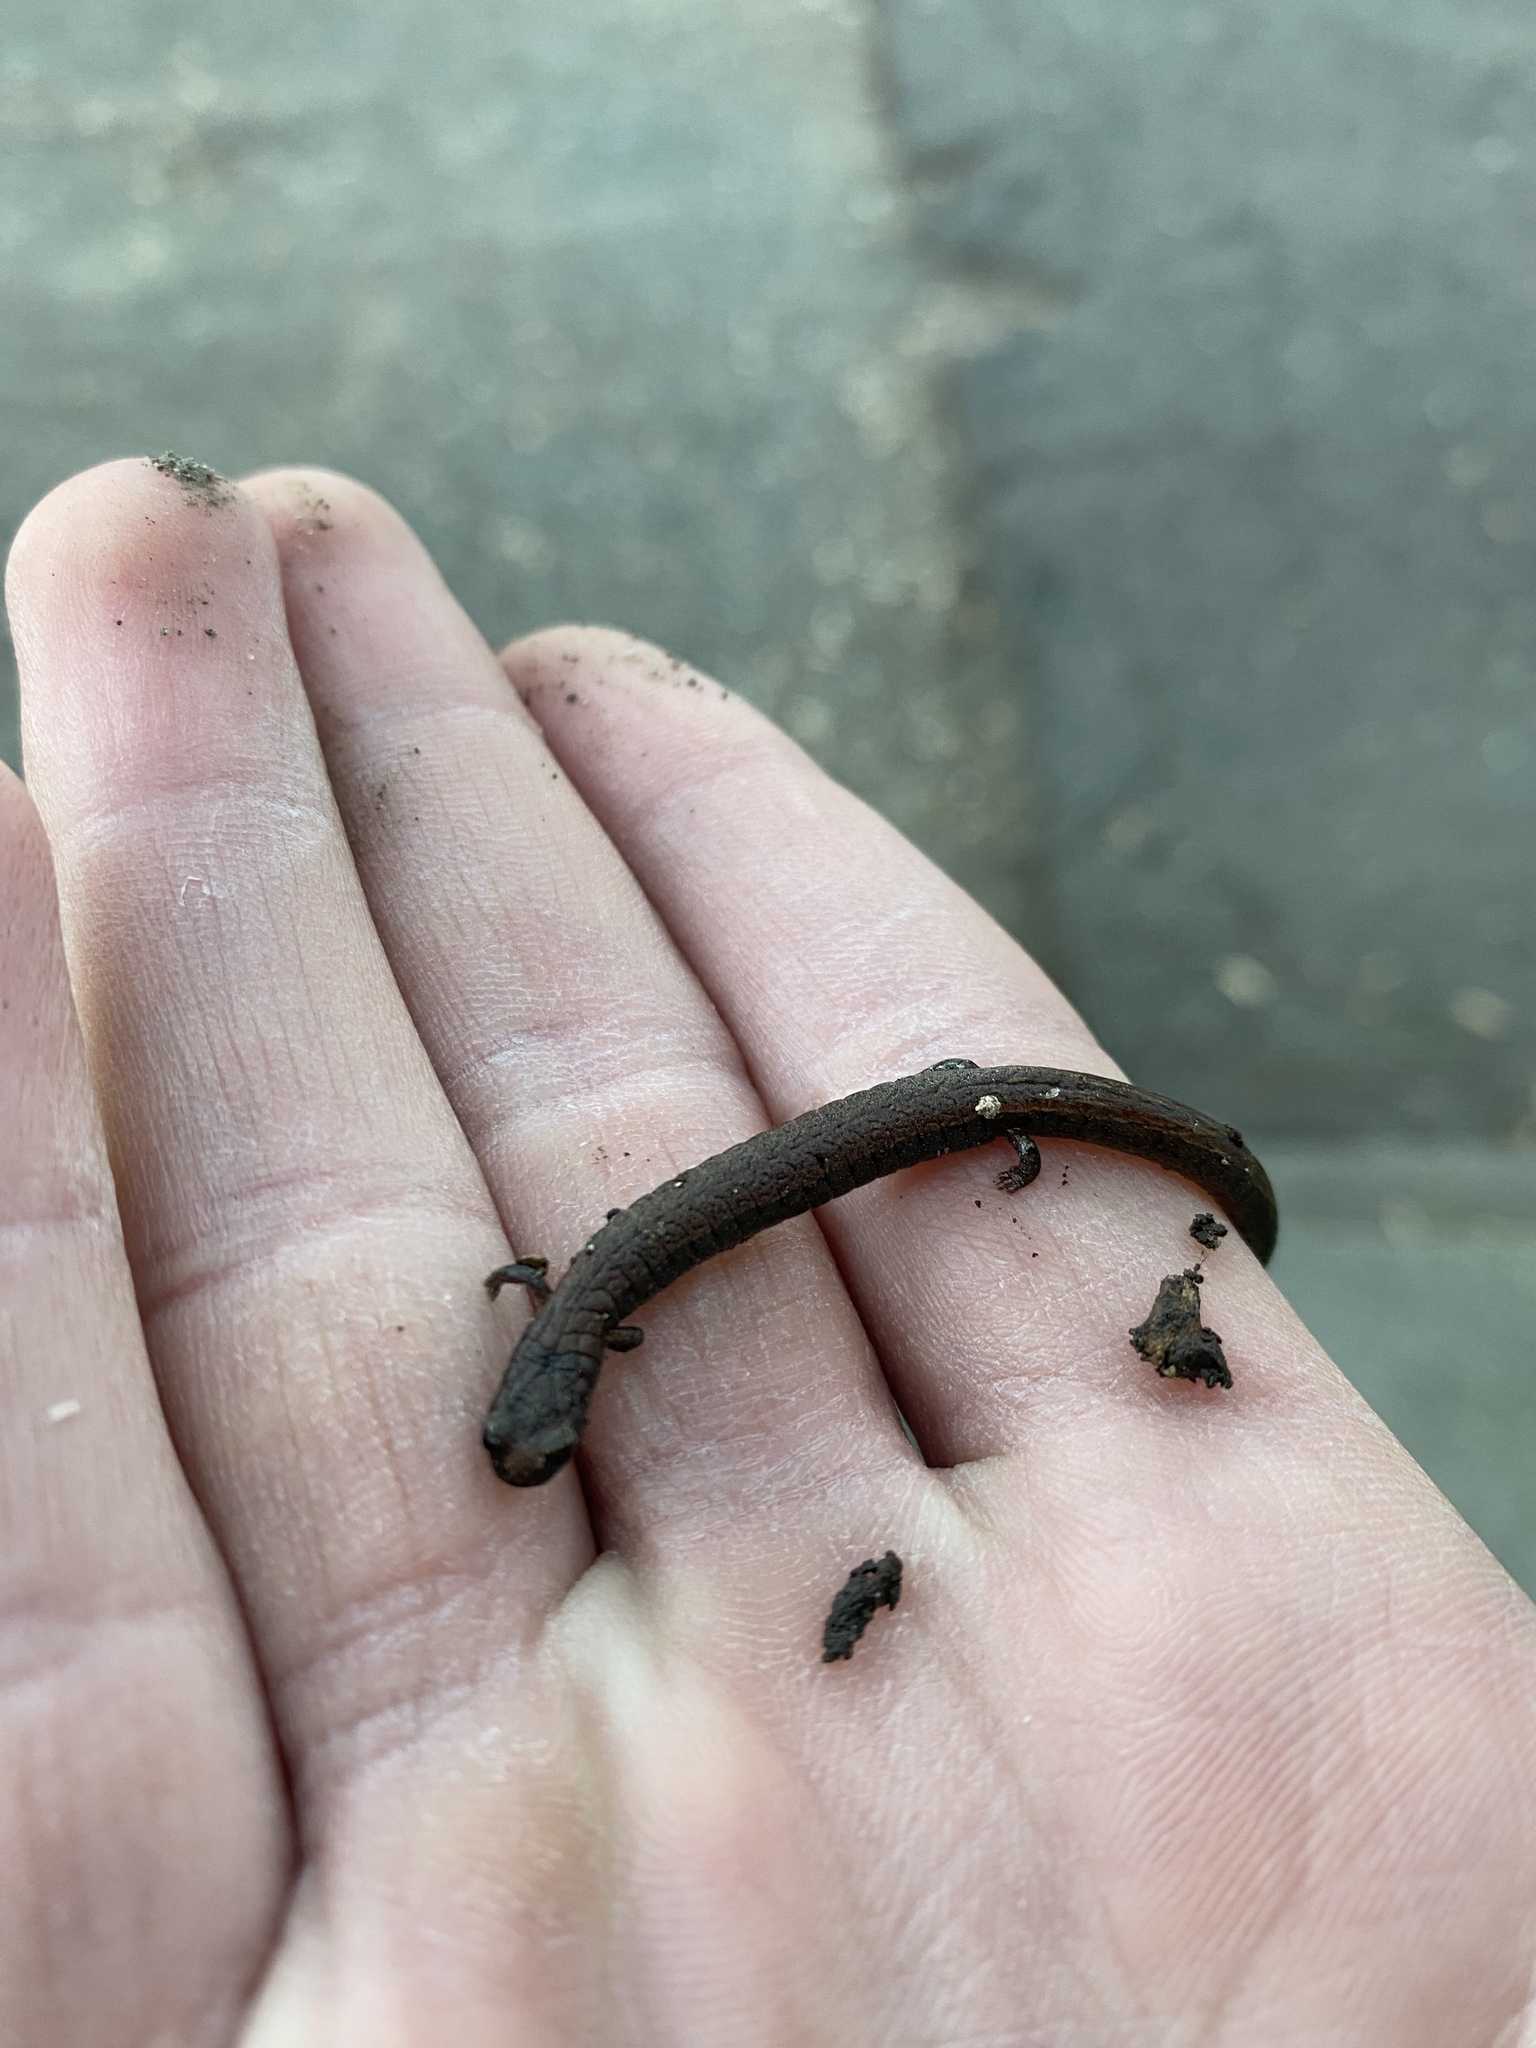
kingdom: Animalia
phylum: Chordata
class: Amphibia
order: Caudata
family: Plethodontidae
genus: Batrachoseps
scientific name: Batrachoseps attenuatus
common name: California slender salamander
